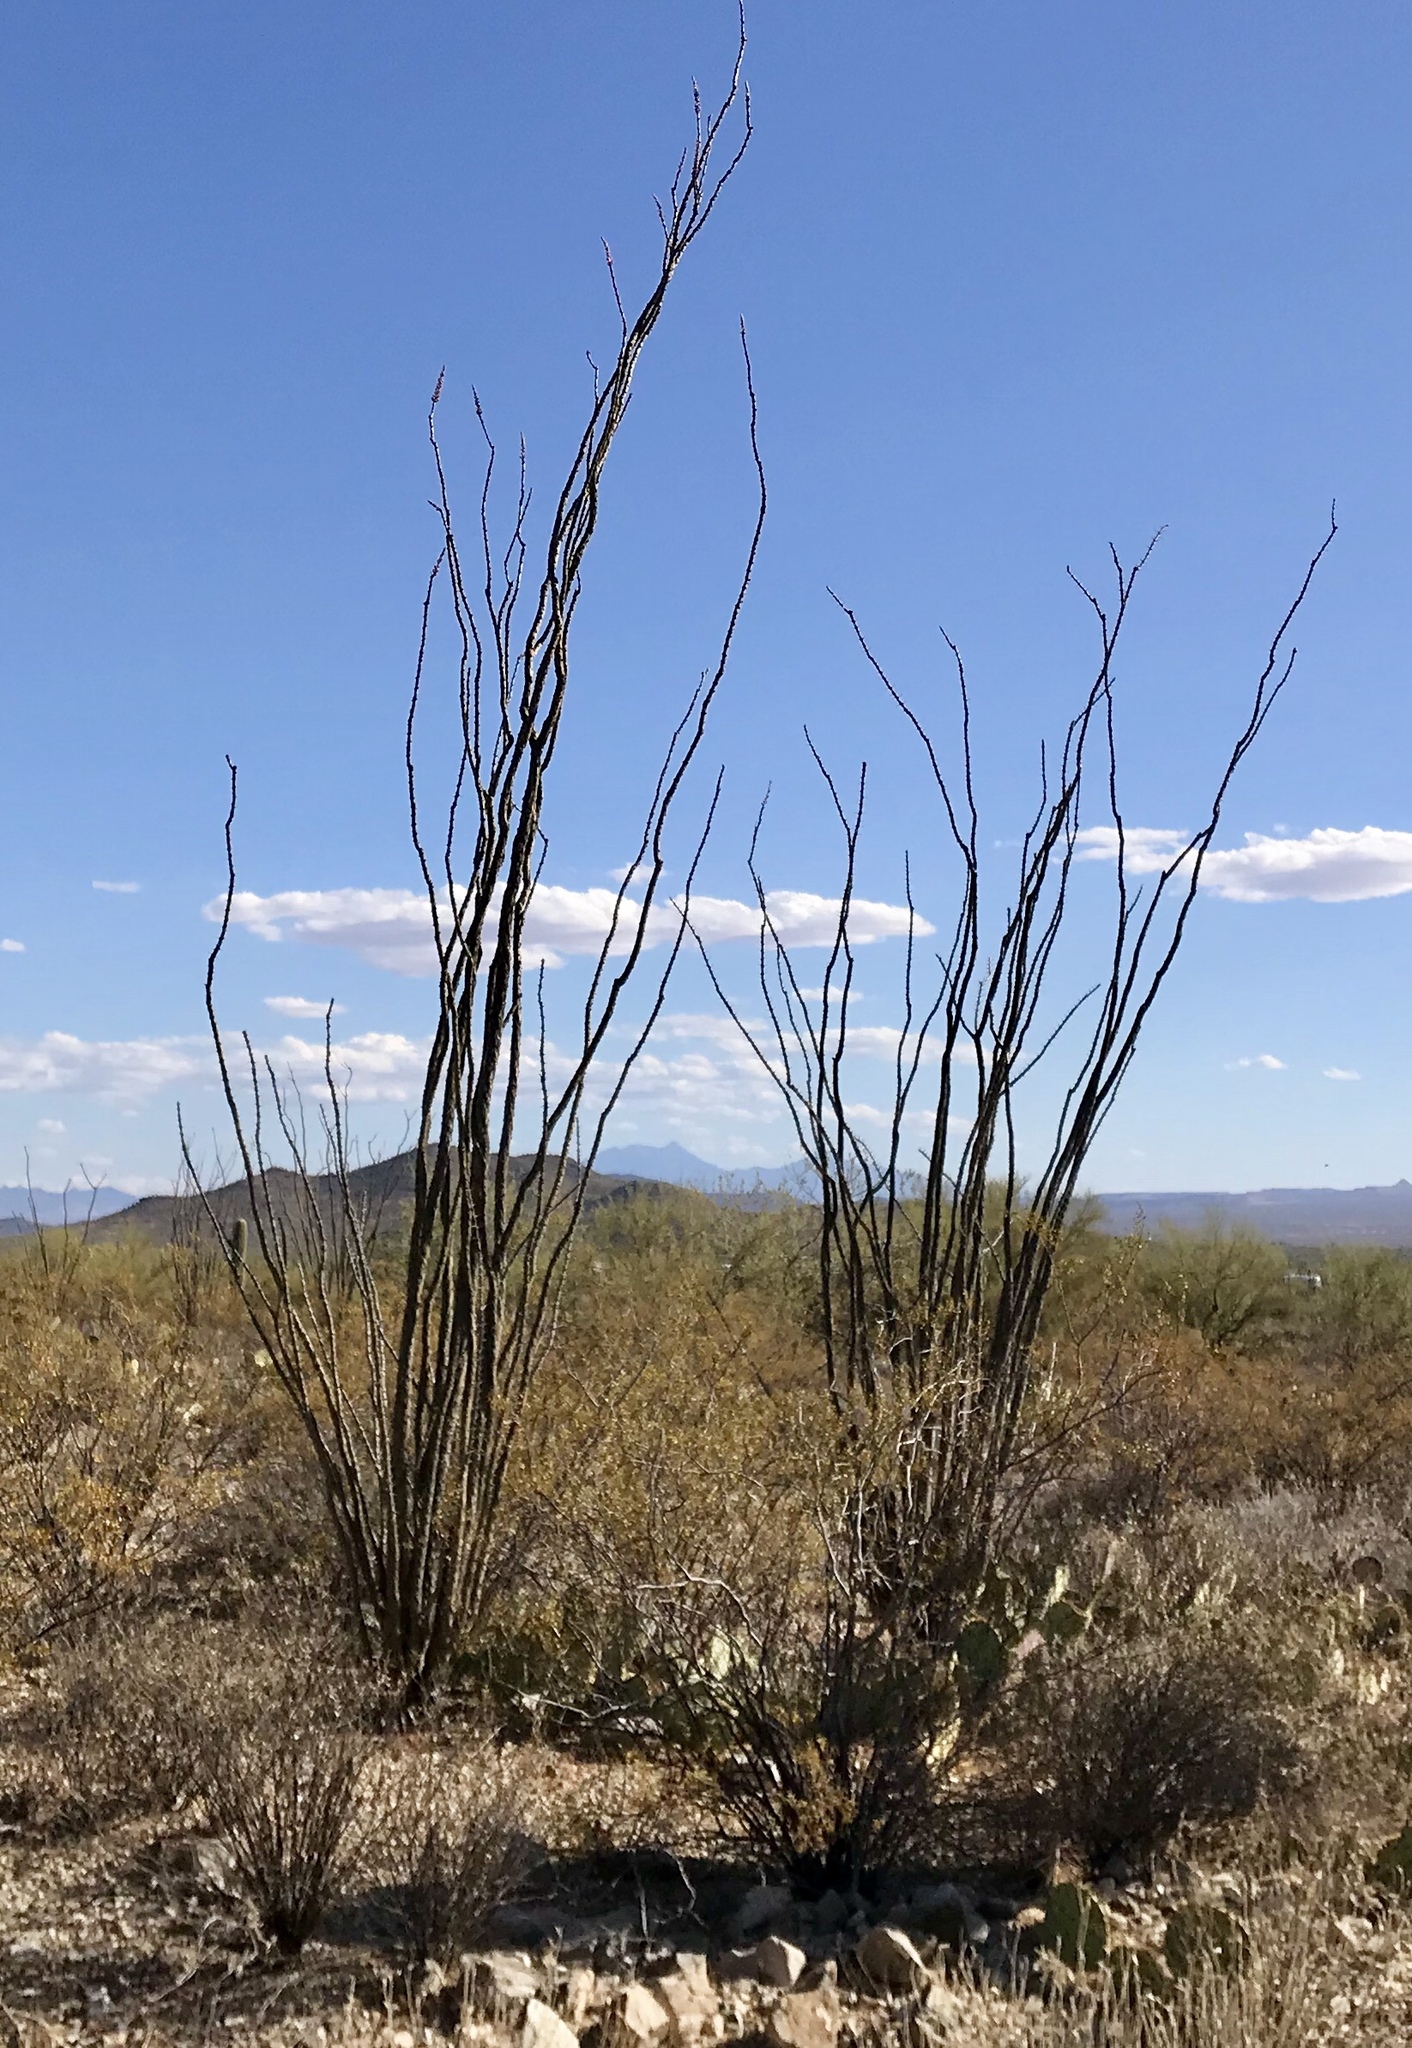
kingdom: Plantae
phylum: Tracheophyta
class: Magnoliopsida
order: Ericales
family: Fouquieriaceae
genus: Fouquieria
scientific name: Fouquieria splendens
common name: Vine-cactus
